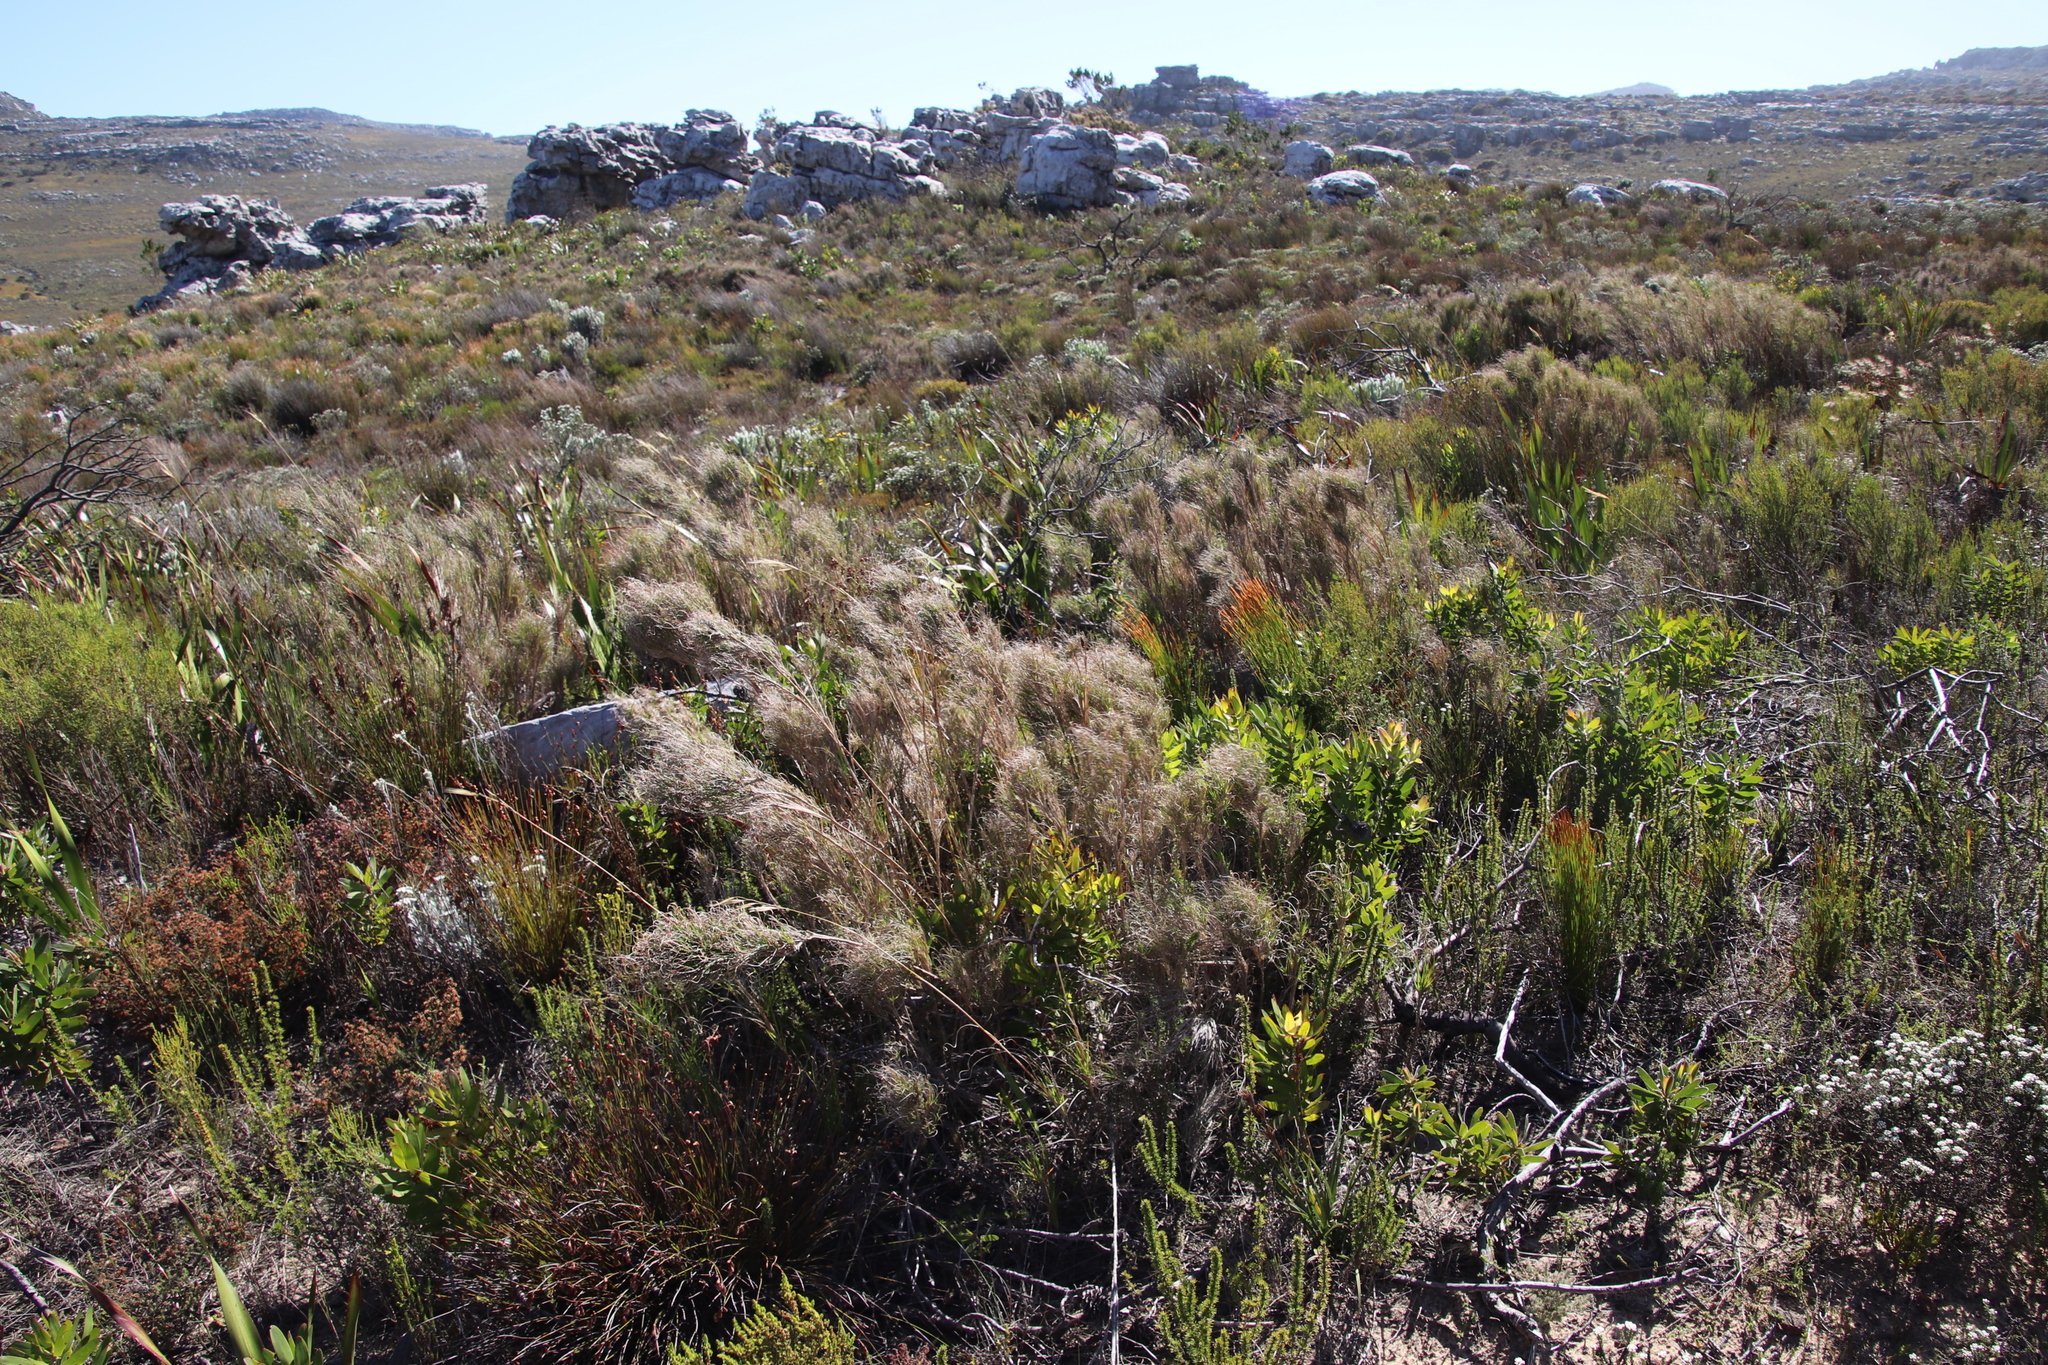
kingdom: Plantae
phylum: Tracheophyta
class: Liliopsida
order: Poales
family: Poaceae
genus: Pseudopentameris
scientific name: Pseudopentameris macrantha
